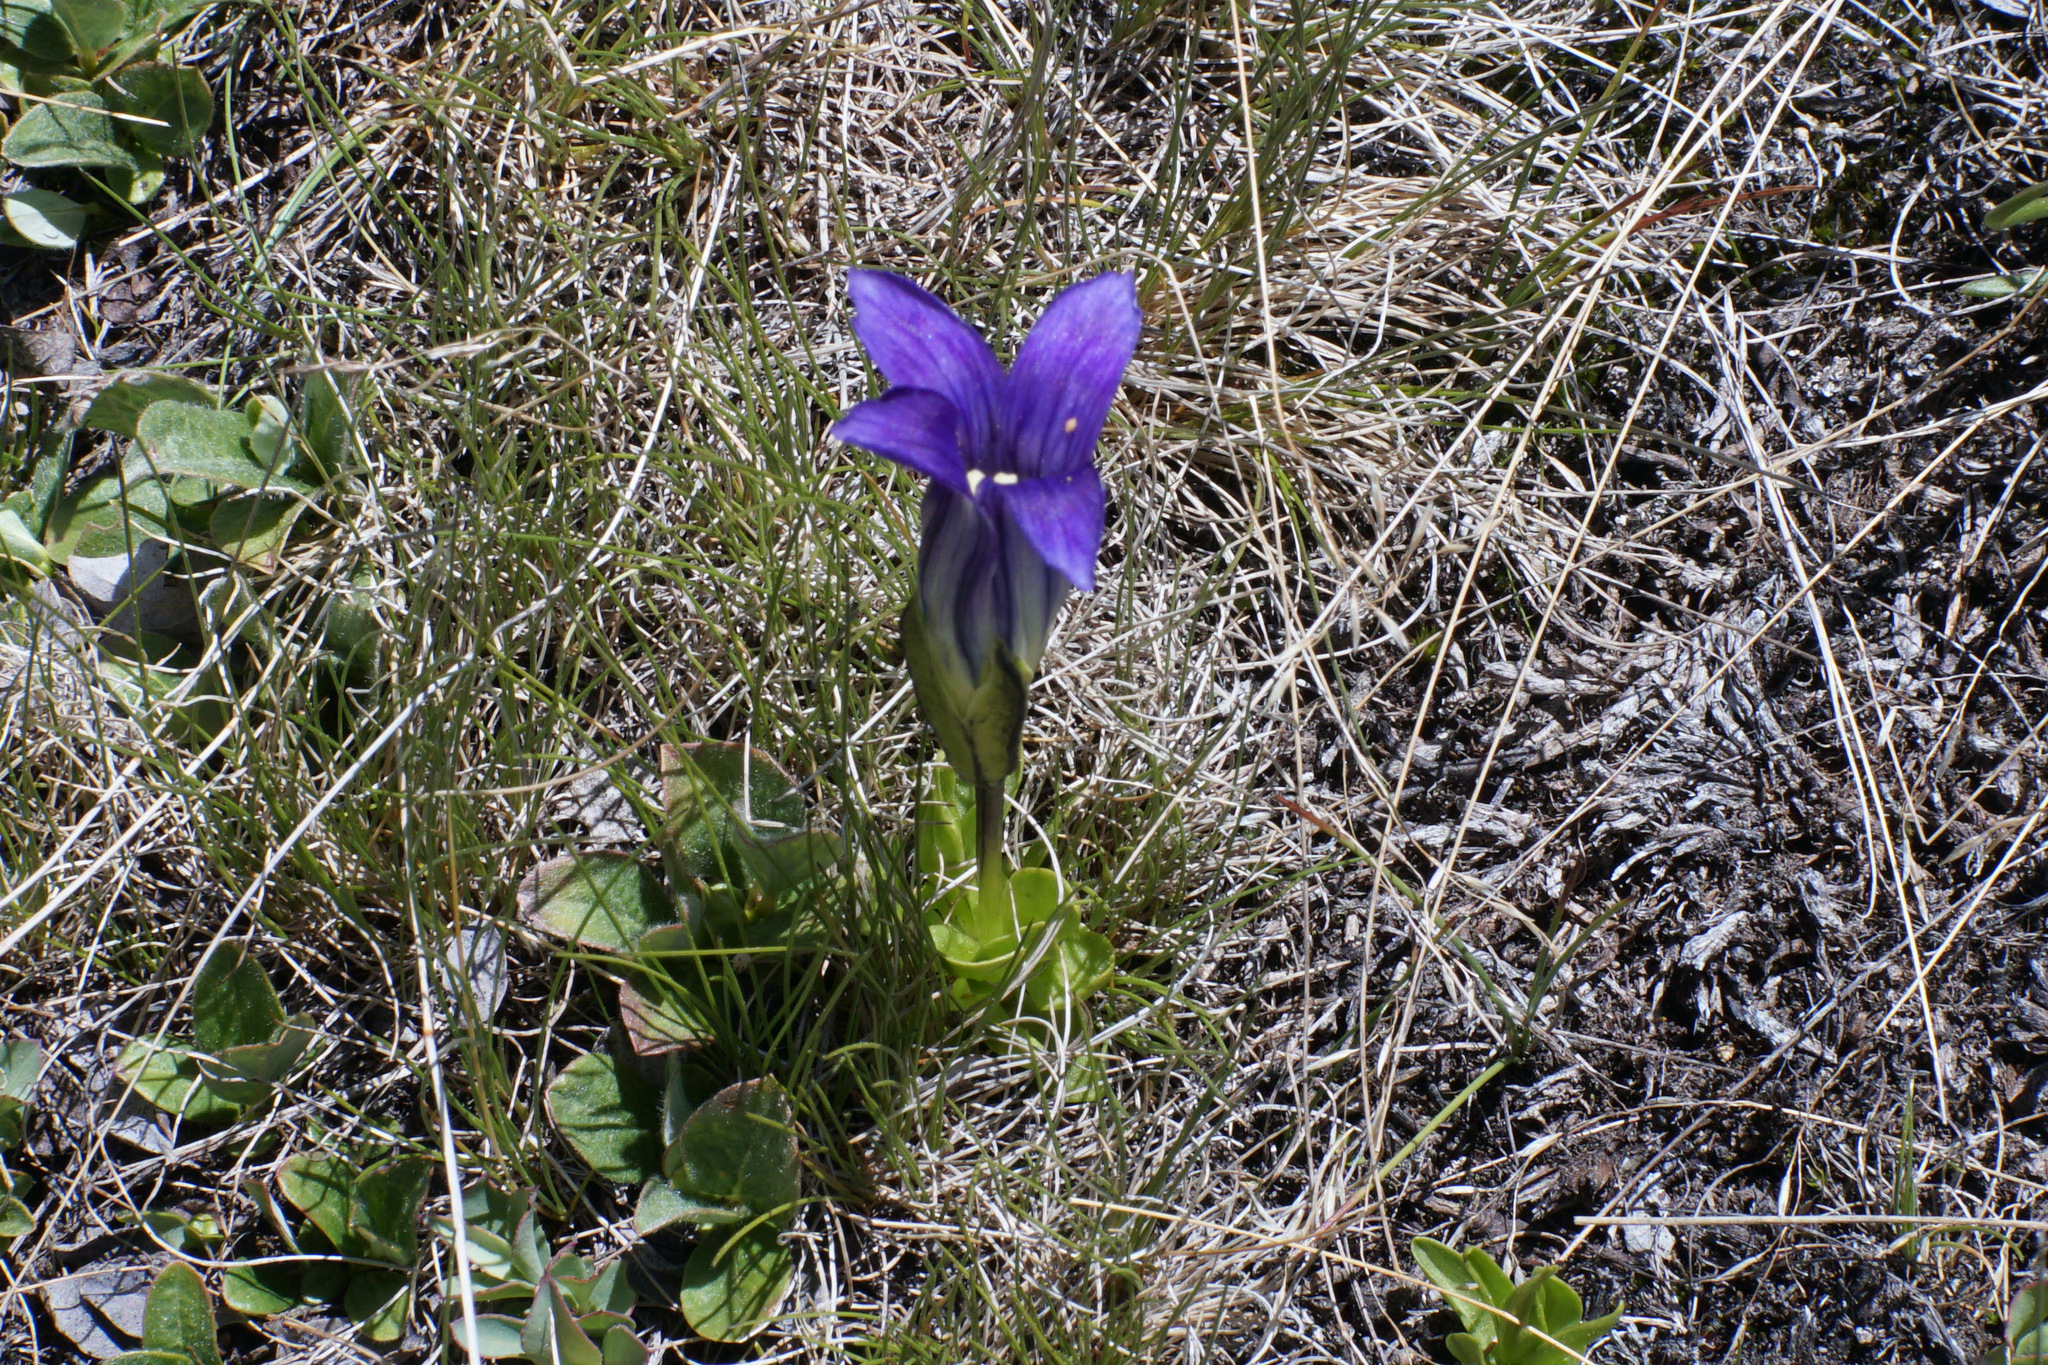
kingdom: Plantae
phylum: Tracheophyta
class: Magnoliopsida
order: Gentianales
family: Gentianaceae
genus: Gentianopsis
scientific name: Gentianopsis holopetala
